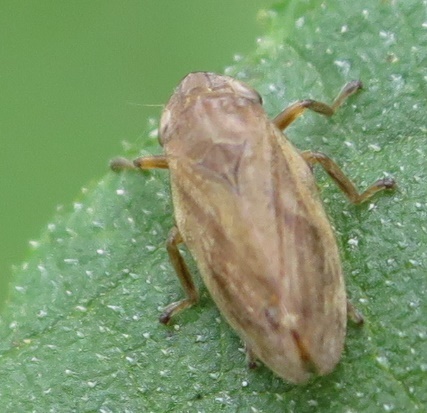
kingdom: Animalia
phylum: Arthropoda
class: Insecta
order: Hemiptera
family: Aphrophoridae
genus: Philaenus
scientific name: Philaenus spumarius
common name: Meadow spittlebug
